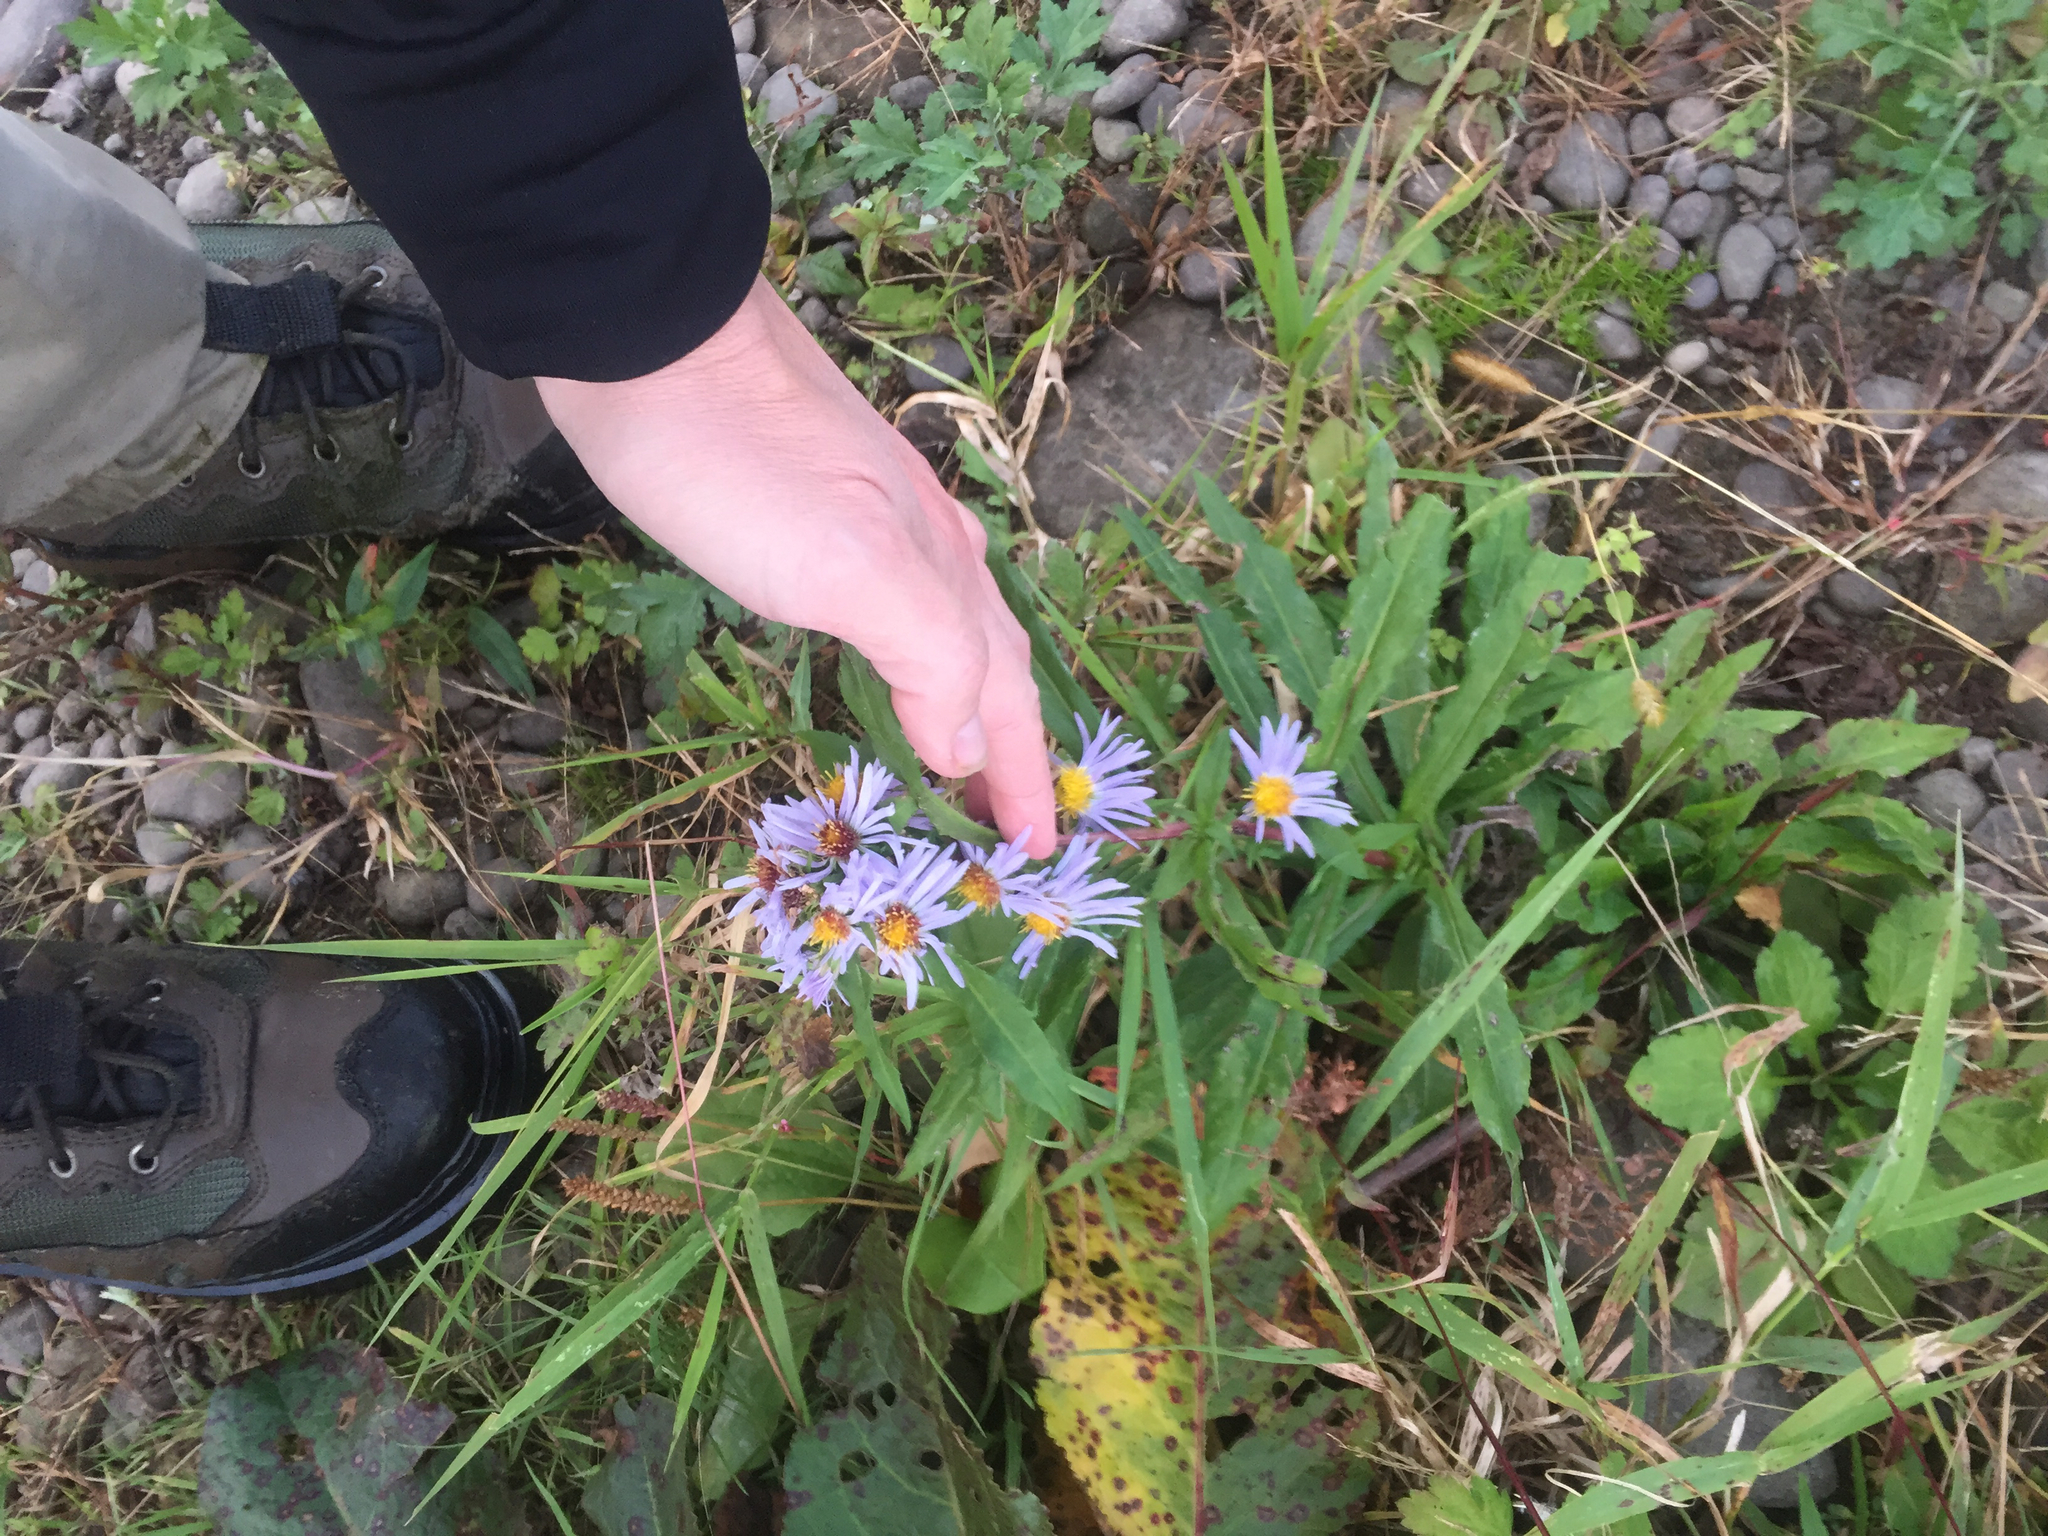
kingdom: Plantae
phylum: Tracheophyta
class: Magnoliopsida
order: Asterales
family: Asteraceae
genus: Symphyotrichum
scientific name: Symphyotrichum puniceum
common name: Bog aster
